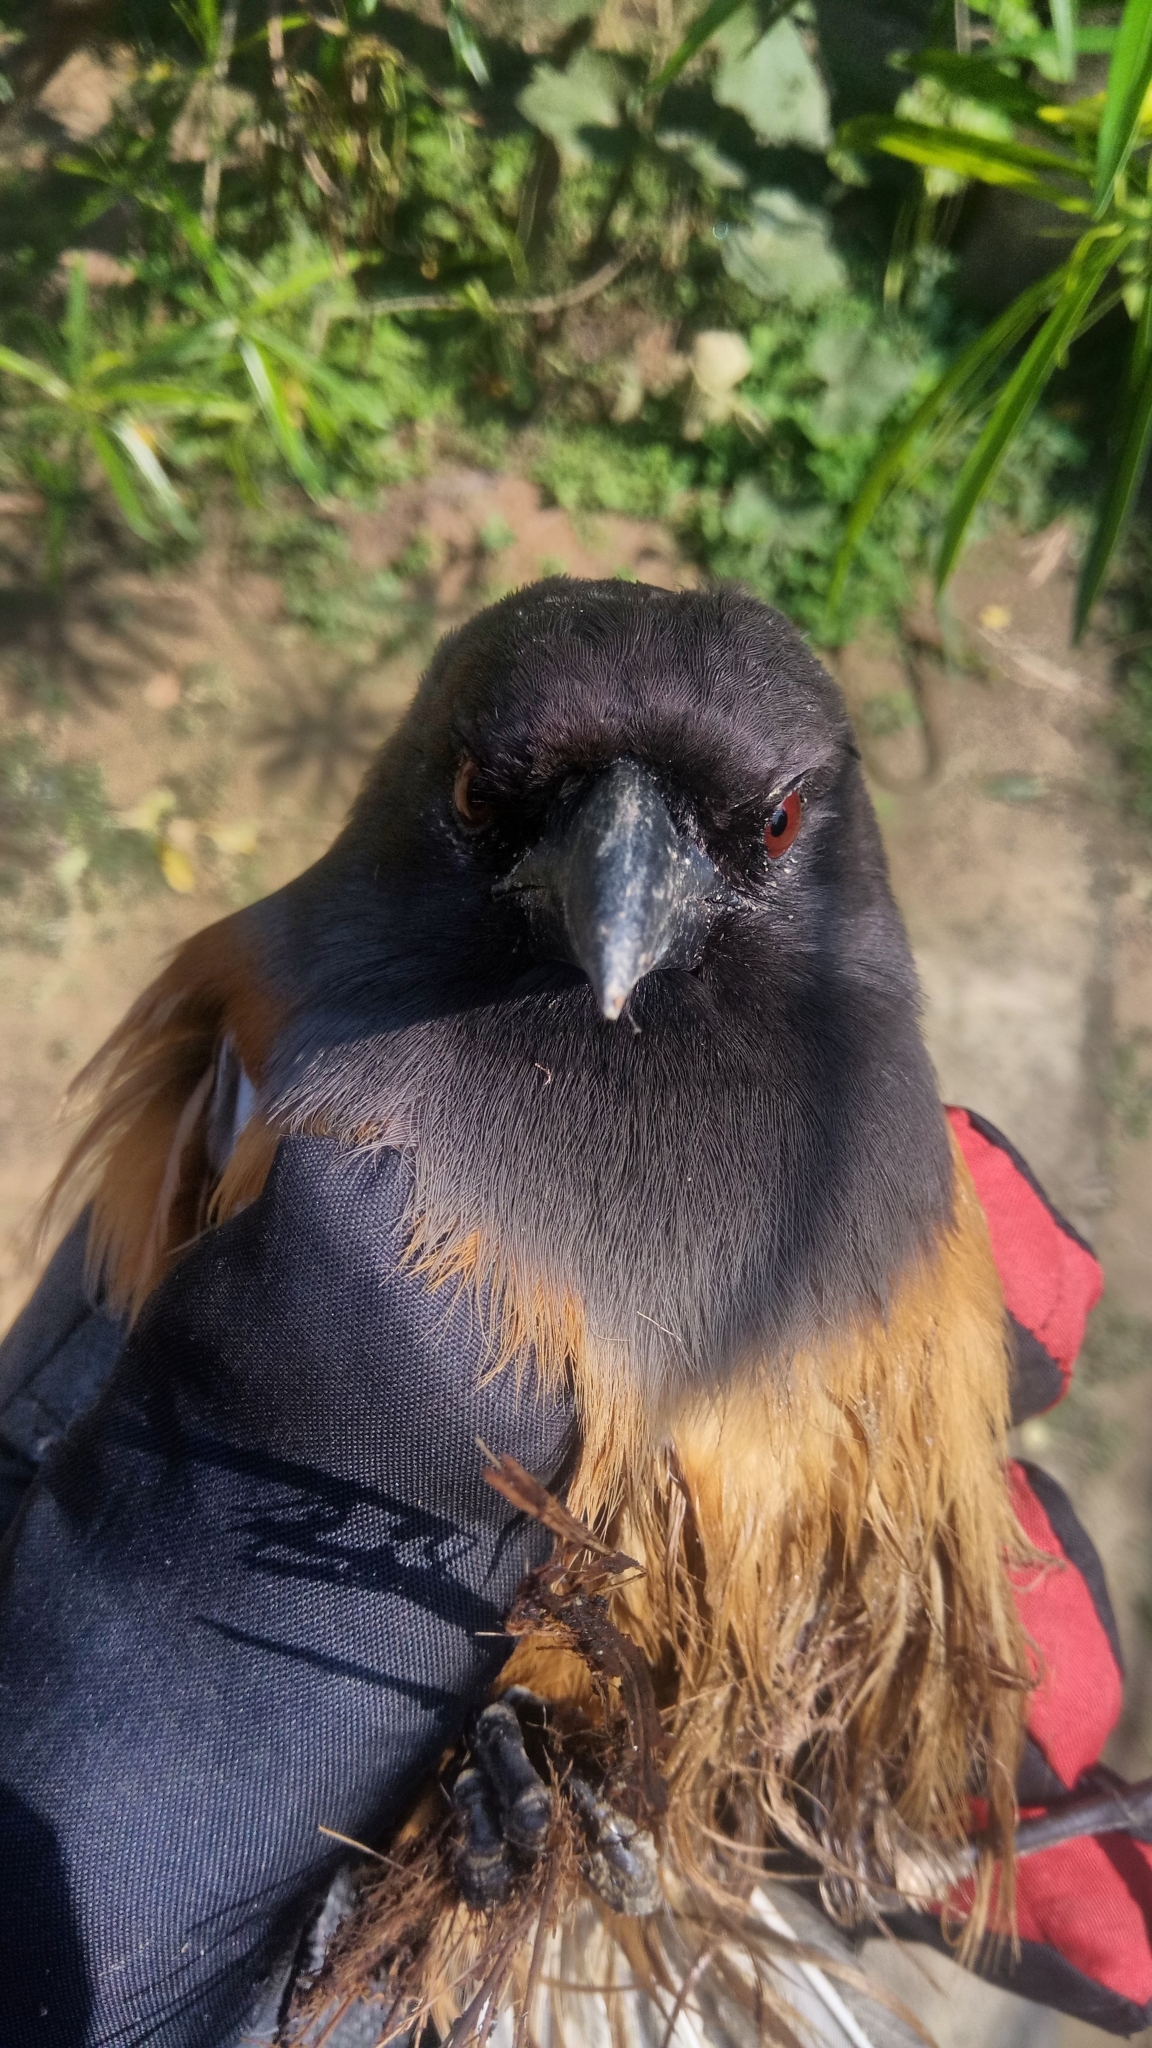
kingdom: Animalia
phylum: Chordata
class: Aves
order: Passeriformes
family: Corvidae
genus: Dendrocitta
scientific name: Dendrocitta vagabunda
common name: Rufous treepie
